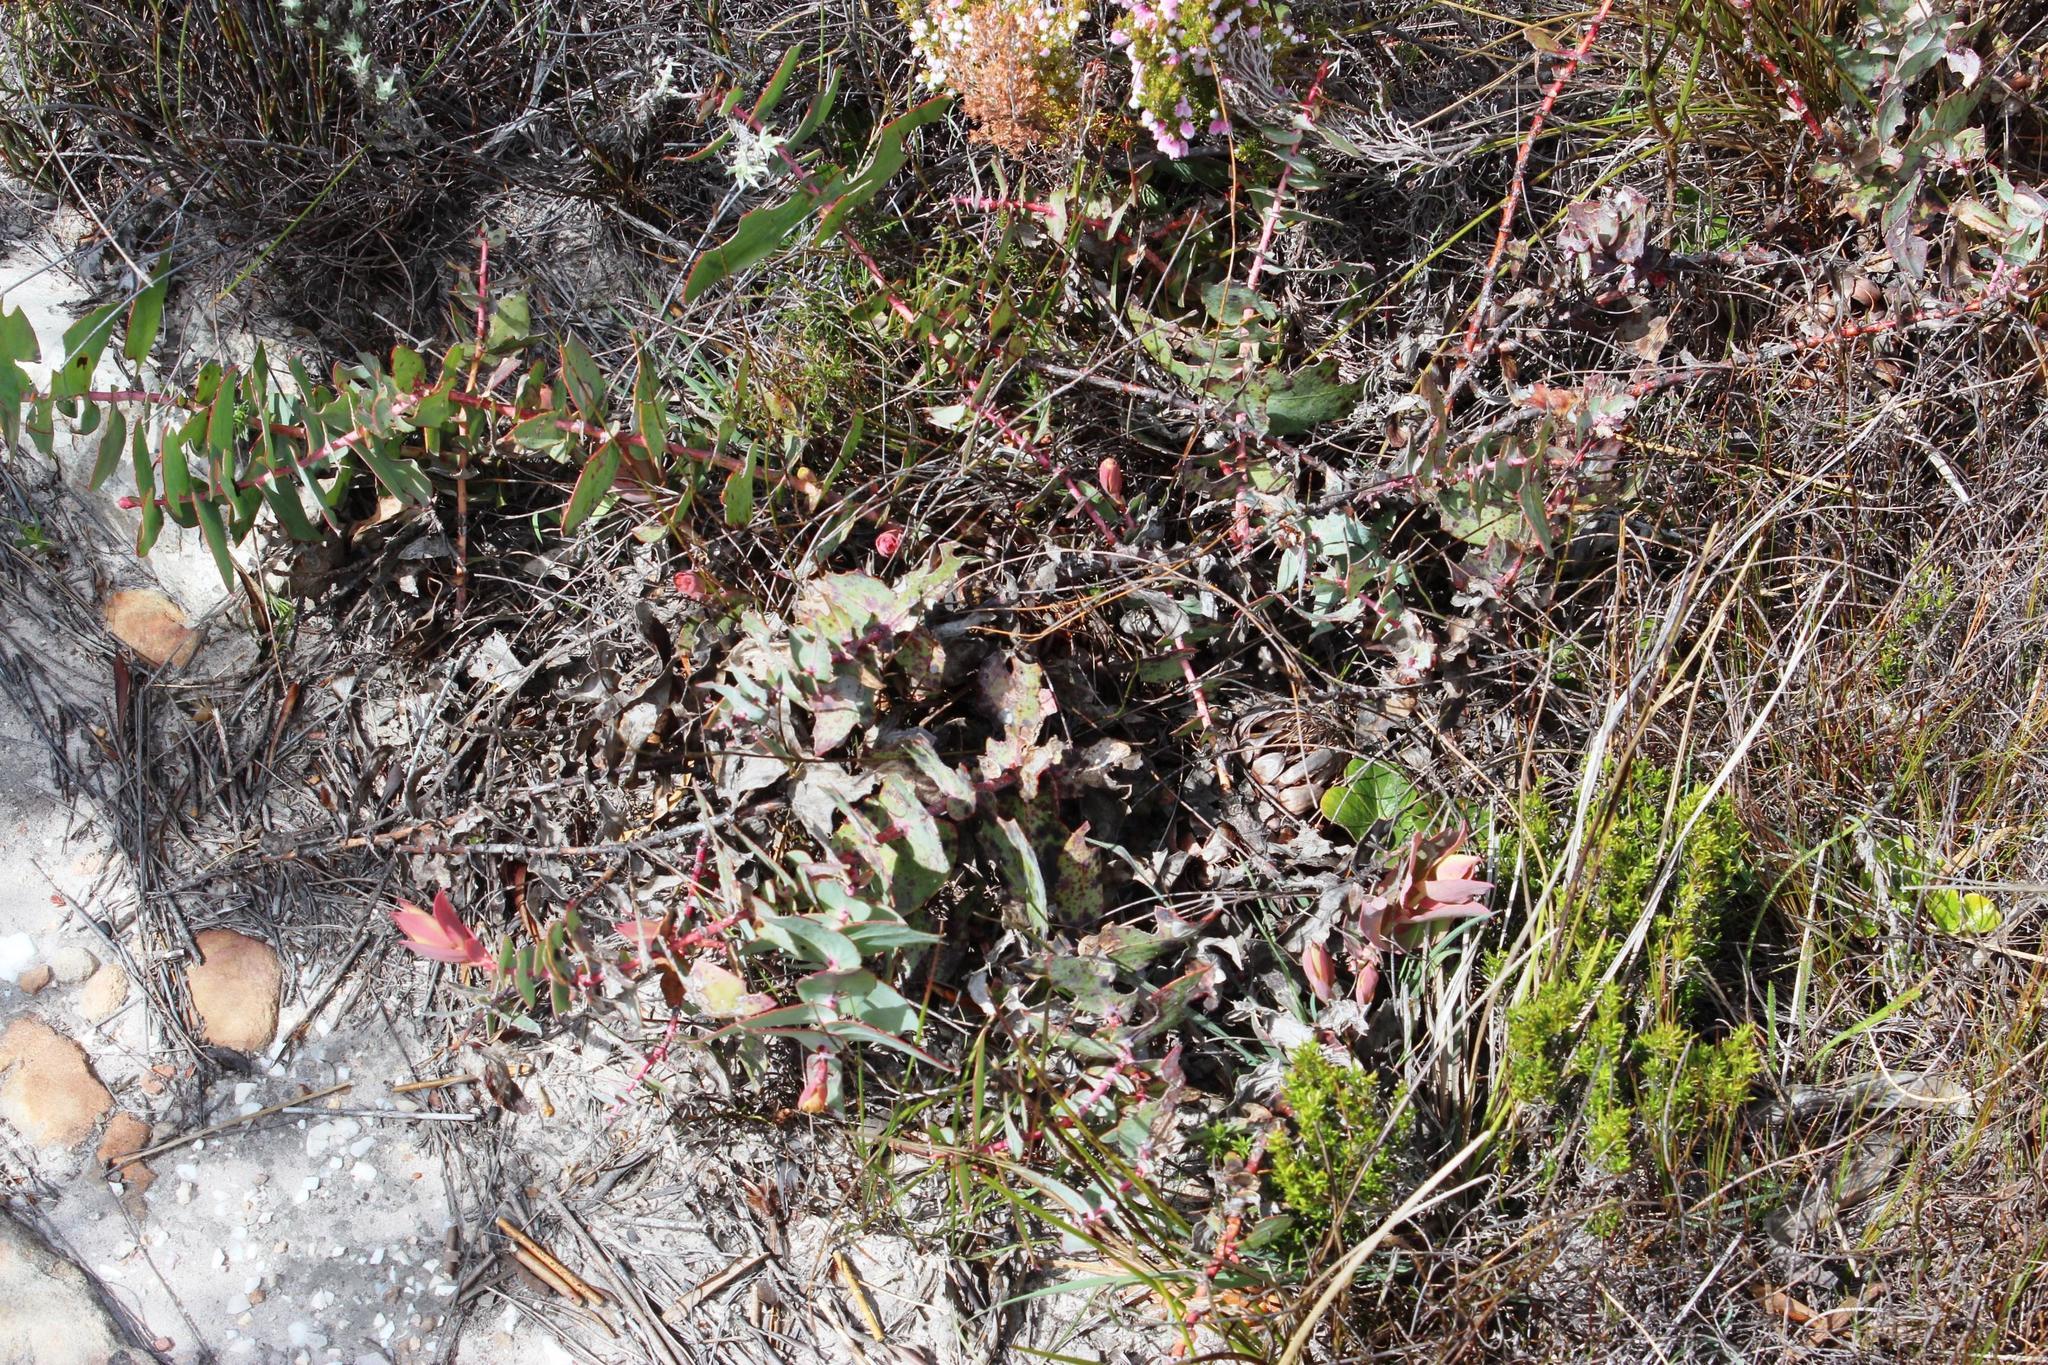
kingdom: Plantae
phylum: Tracheophyta
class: Magnoliopsida
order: Proteales
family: Proteaceae
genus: Protea
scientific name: Protea amplexicaulis
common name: Clasping-leaf sugarbush
